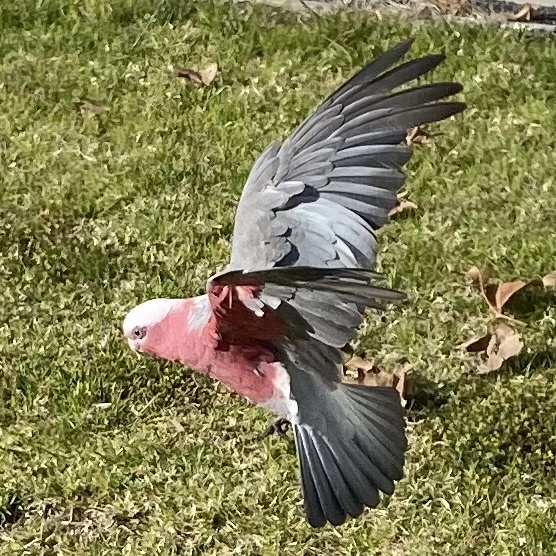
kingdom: Animalia
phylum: Chordata
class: Aves
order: Psittaciformes
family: Psittacidae
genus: Eolophus
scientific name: Eolophus roseicapilla
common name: Galah
